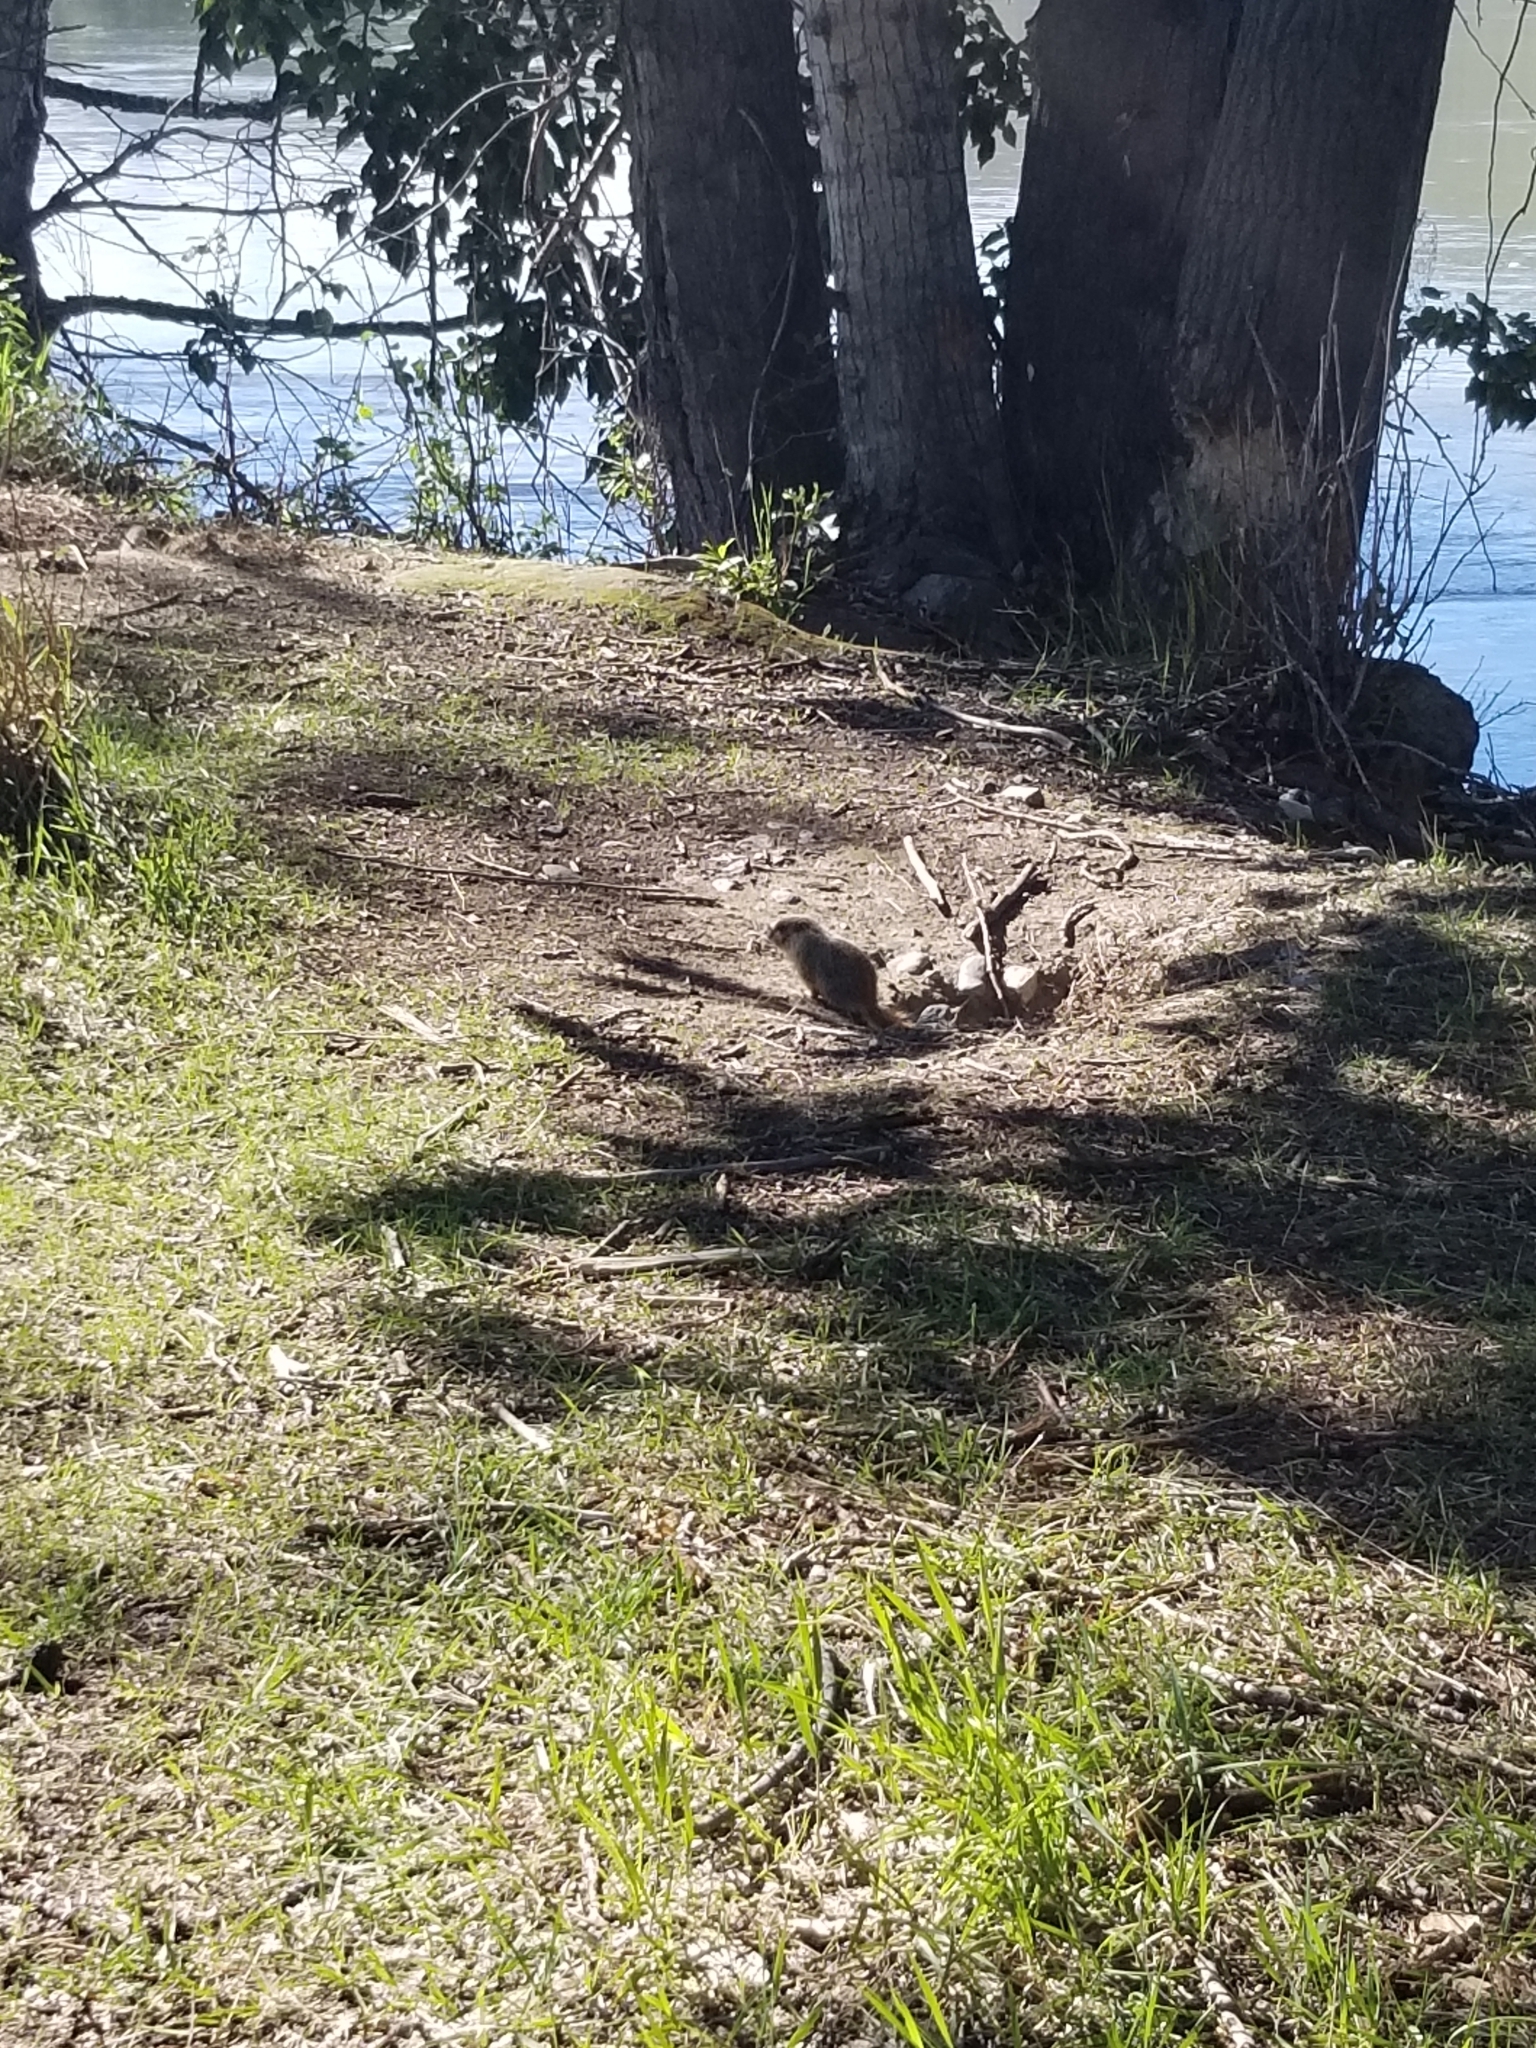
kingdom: Animalia
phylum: Chordata
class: Mammalia
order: Rodentia
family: Sciuridae
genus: Marmota
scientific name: Marmota flaviventris
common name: Yellow-bellied marmot
